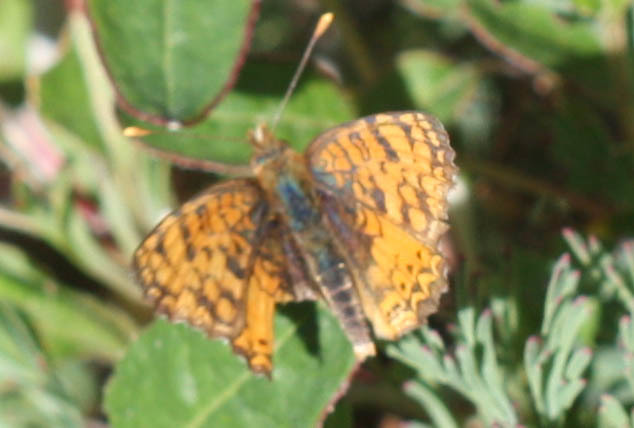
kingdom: Animalia
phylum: Arthropoda
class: Insecta
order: Lepidoptera
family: Nymphalidae
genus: Eresia
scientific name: Eresia aveyrona
